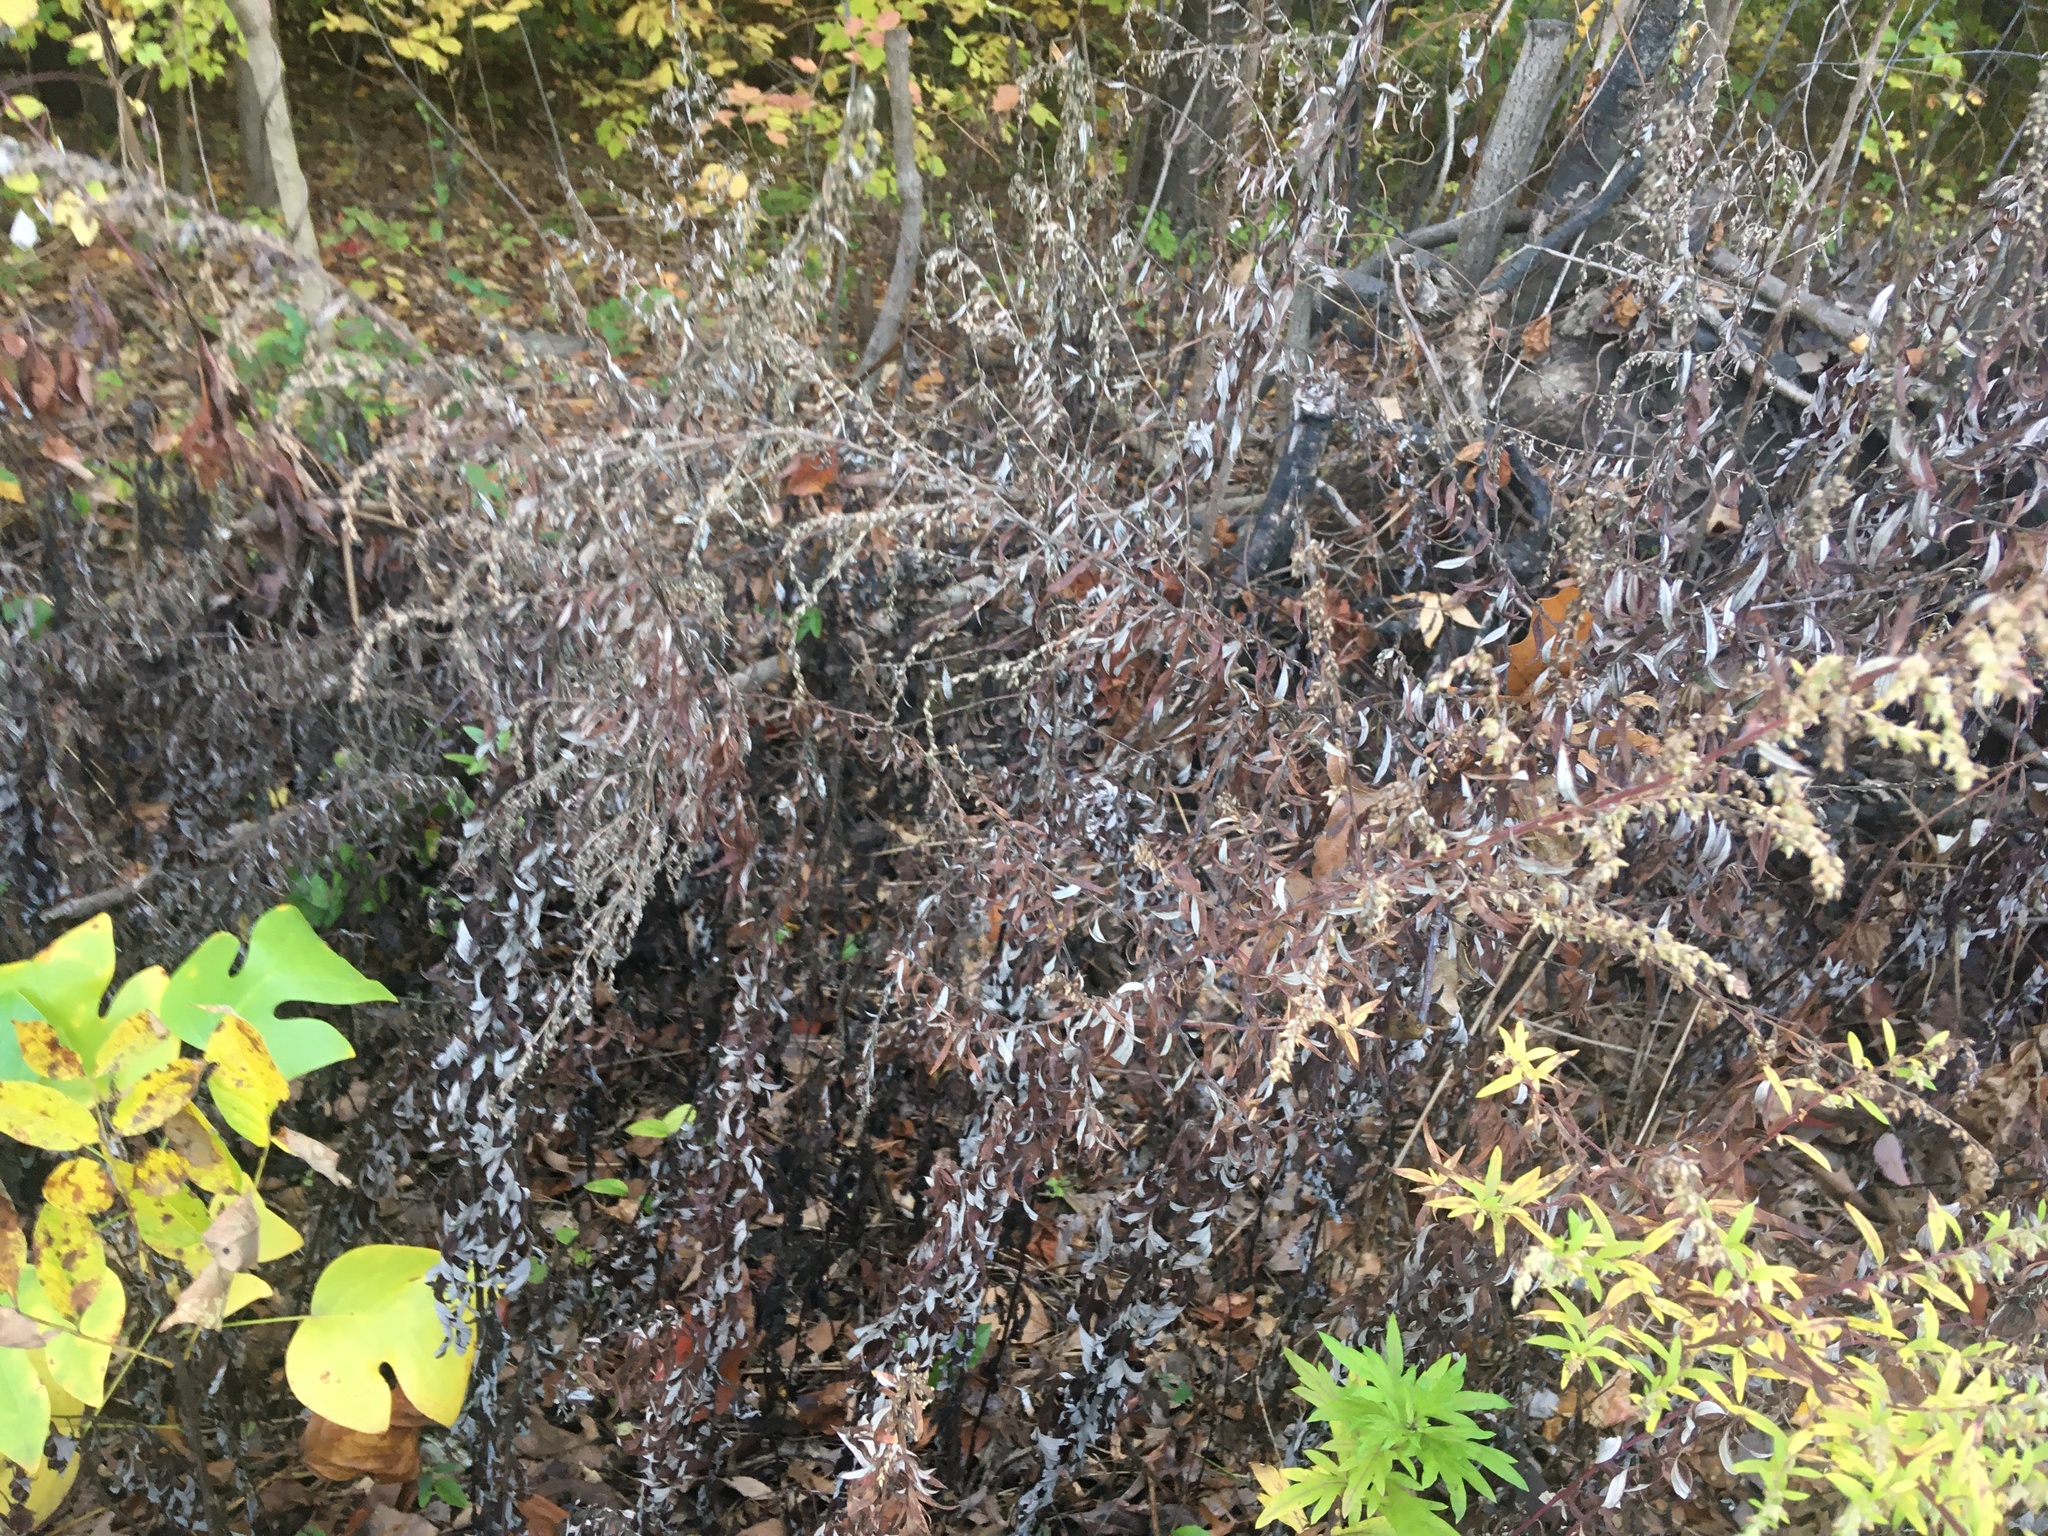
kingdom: Plantae
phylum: Tracheophyta
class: Magnoliopsida
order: Asterales
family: Asteraceae
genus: Artemisia
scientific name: Artemisia vulgaris
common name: Mugwort
